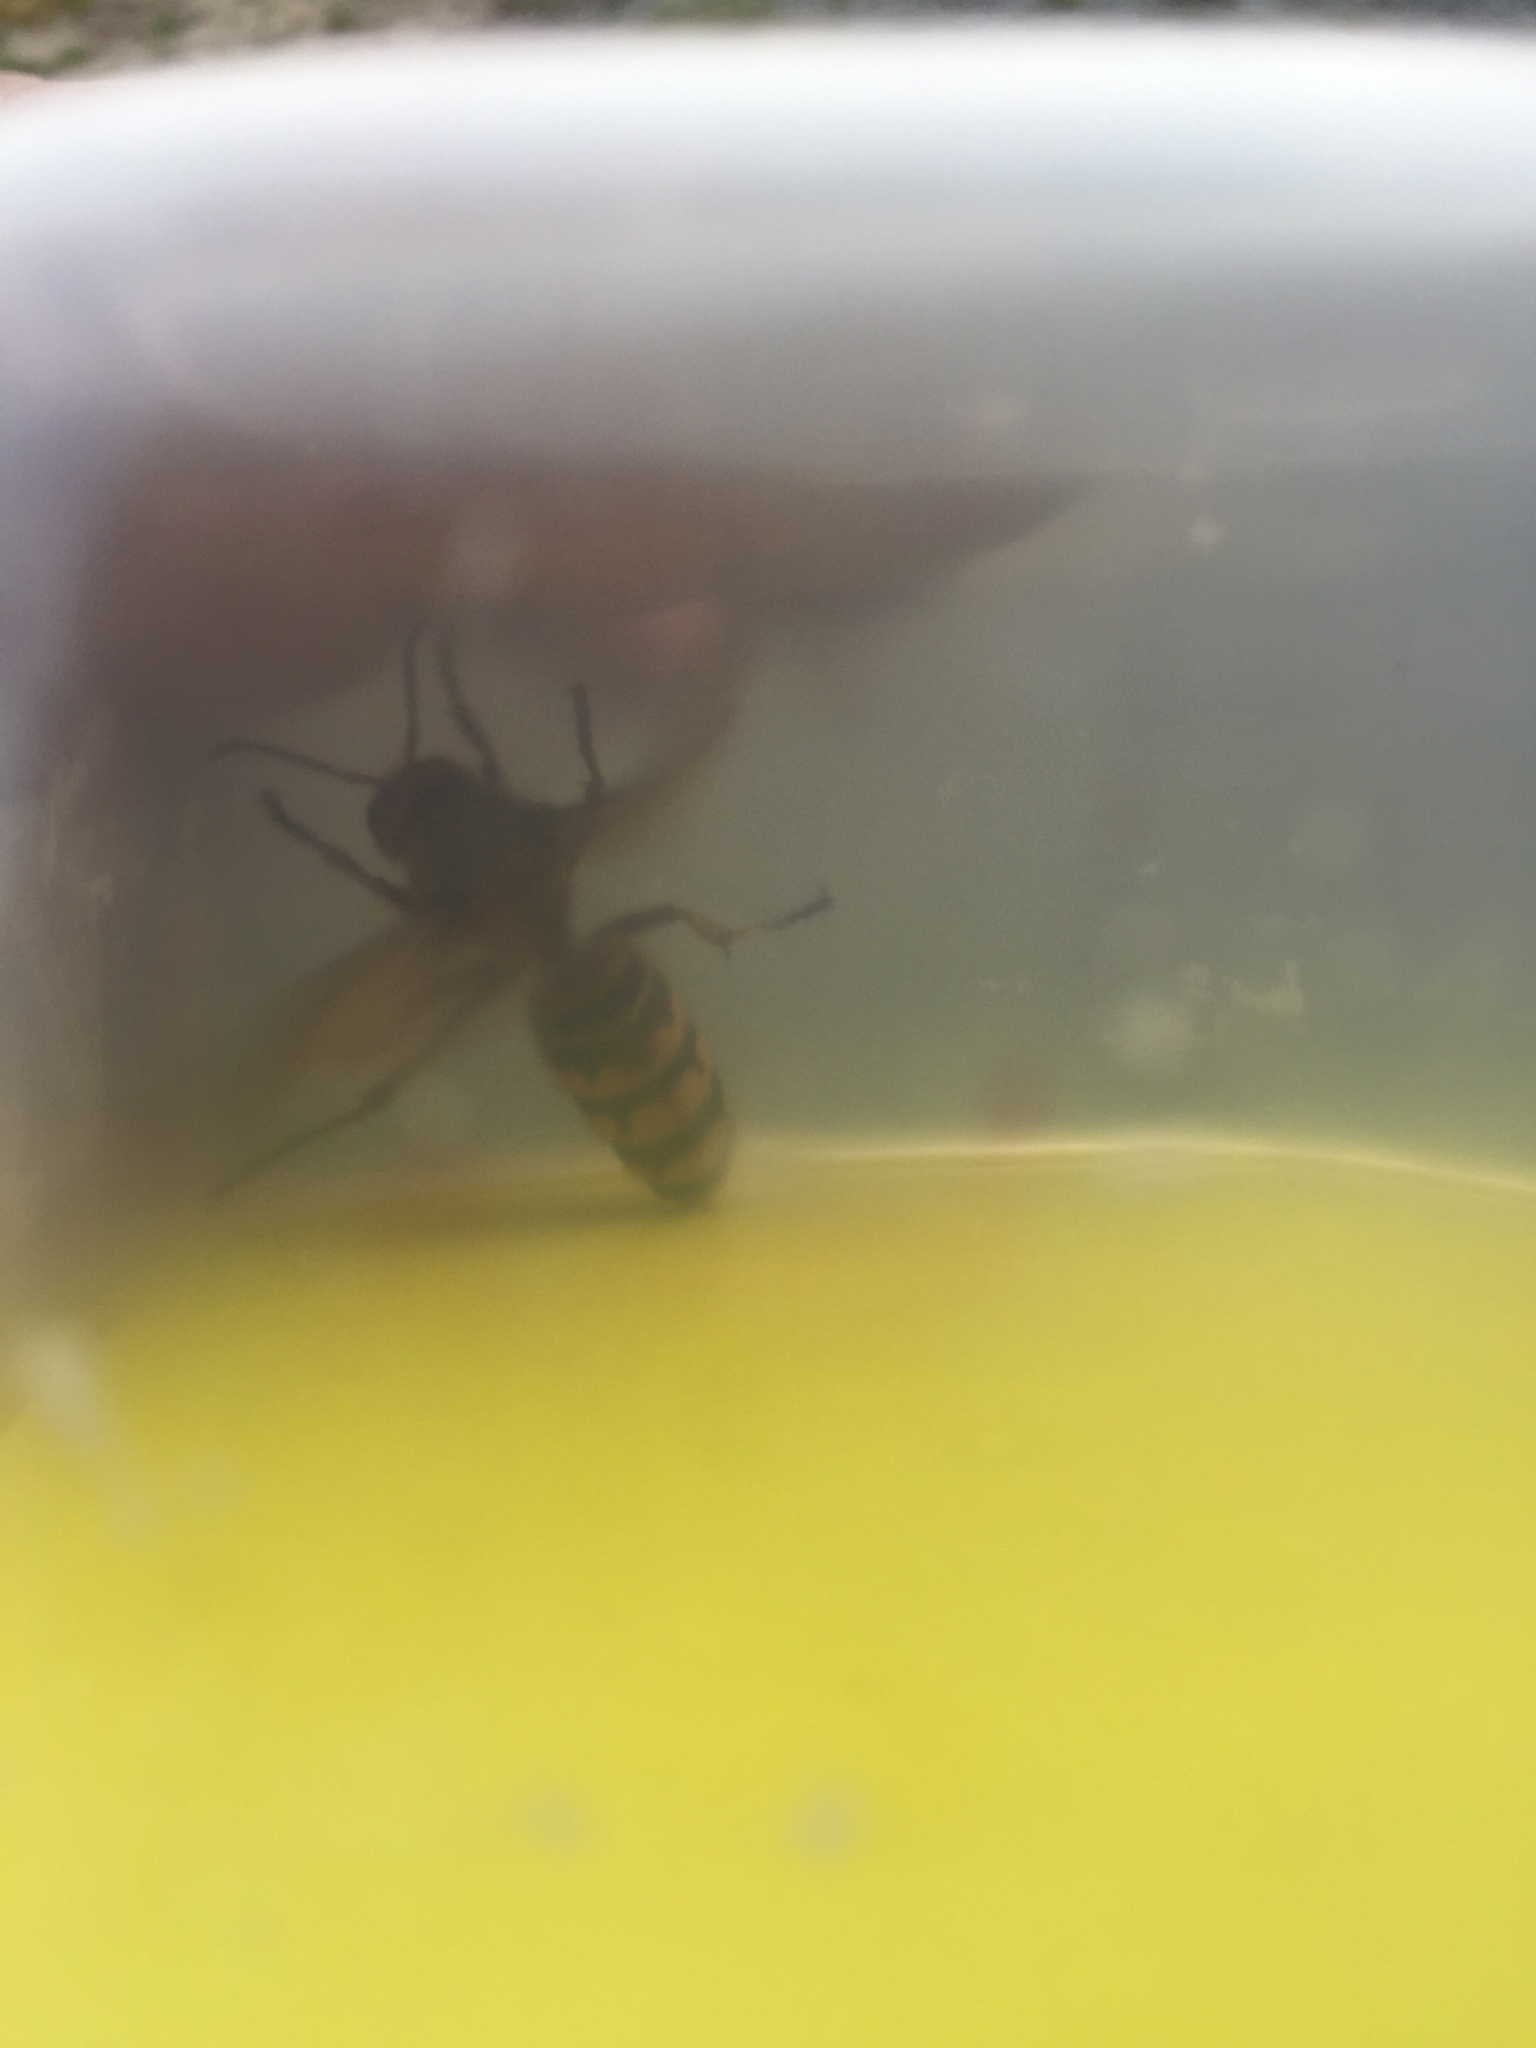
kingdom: Animalia
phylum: Arthropoda
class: Insecta
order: Hymenoptera
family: Vespidae
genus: Vespa
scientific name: Vespa crabro
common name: Hornet
